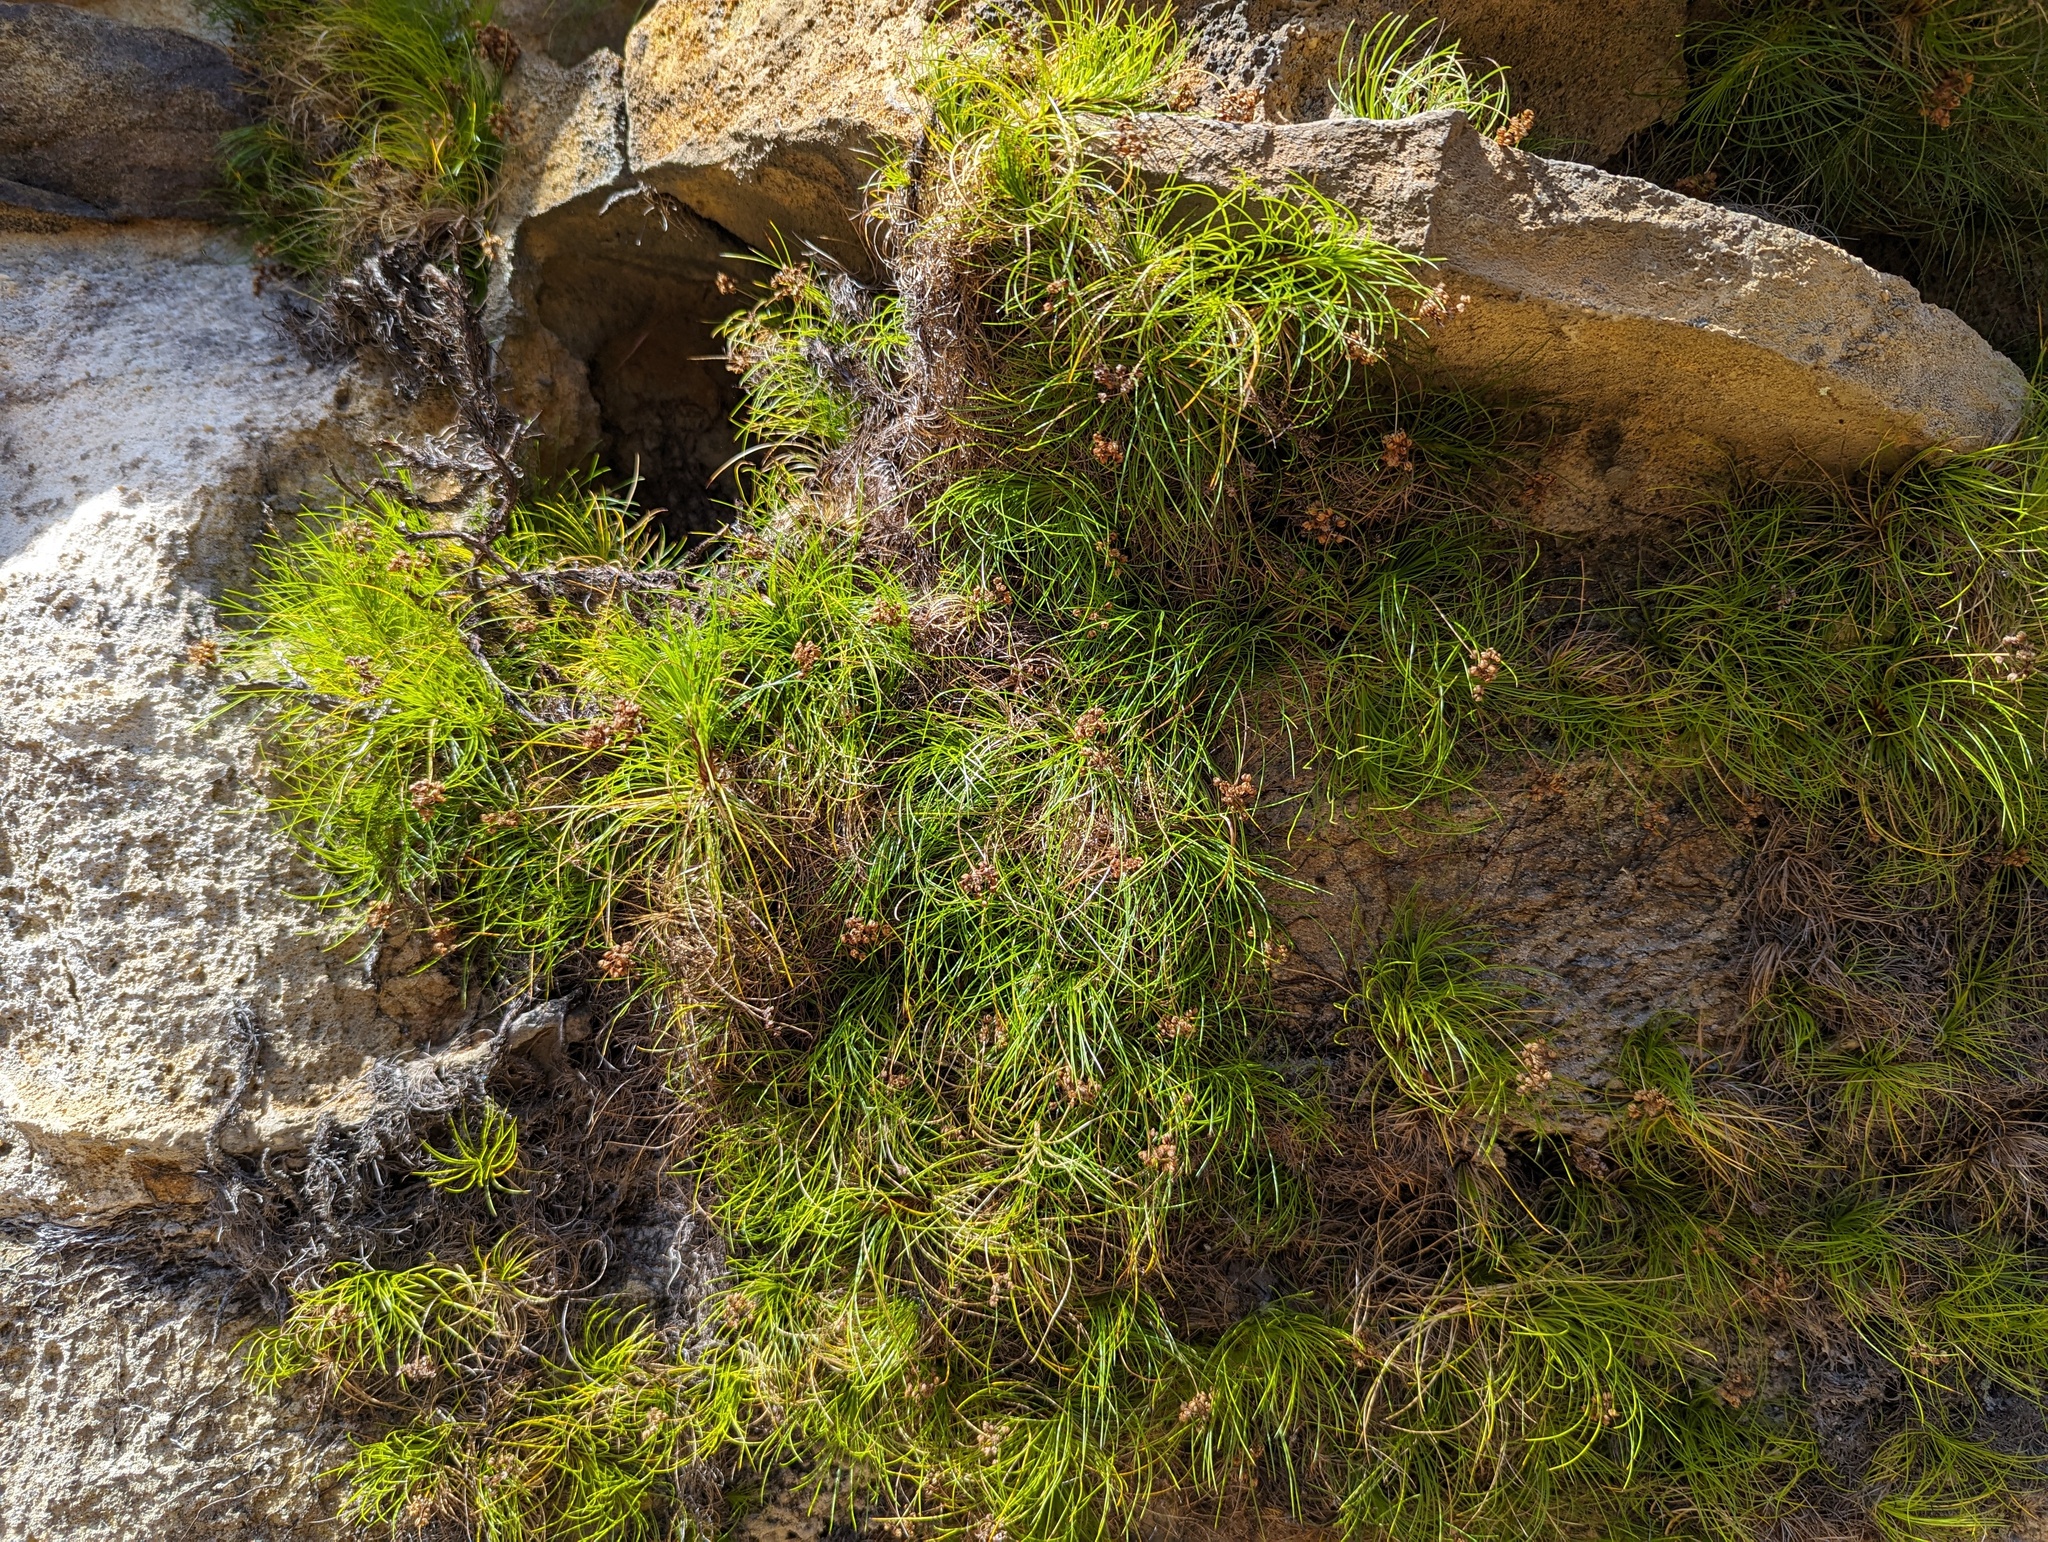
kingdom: Plantae
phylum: Tracheophyta
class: Liliopsida
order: Asparagales
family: Boryaceae
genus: Alania
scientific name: Alania cunninghamii
